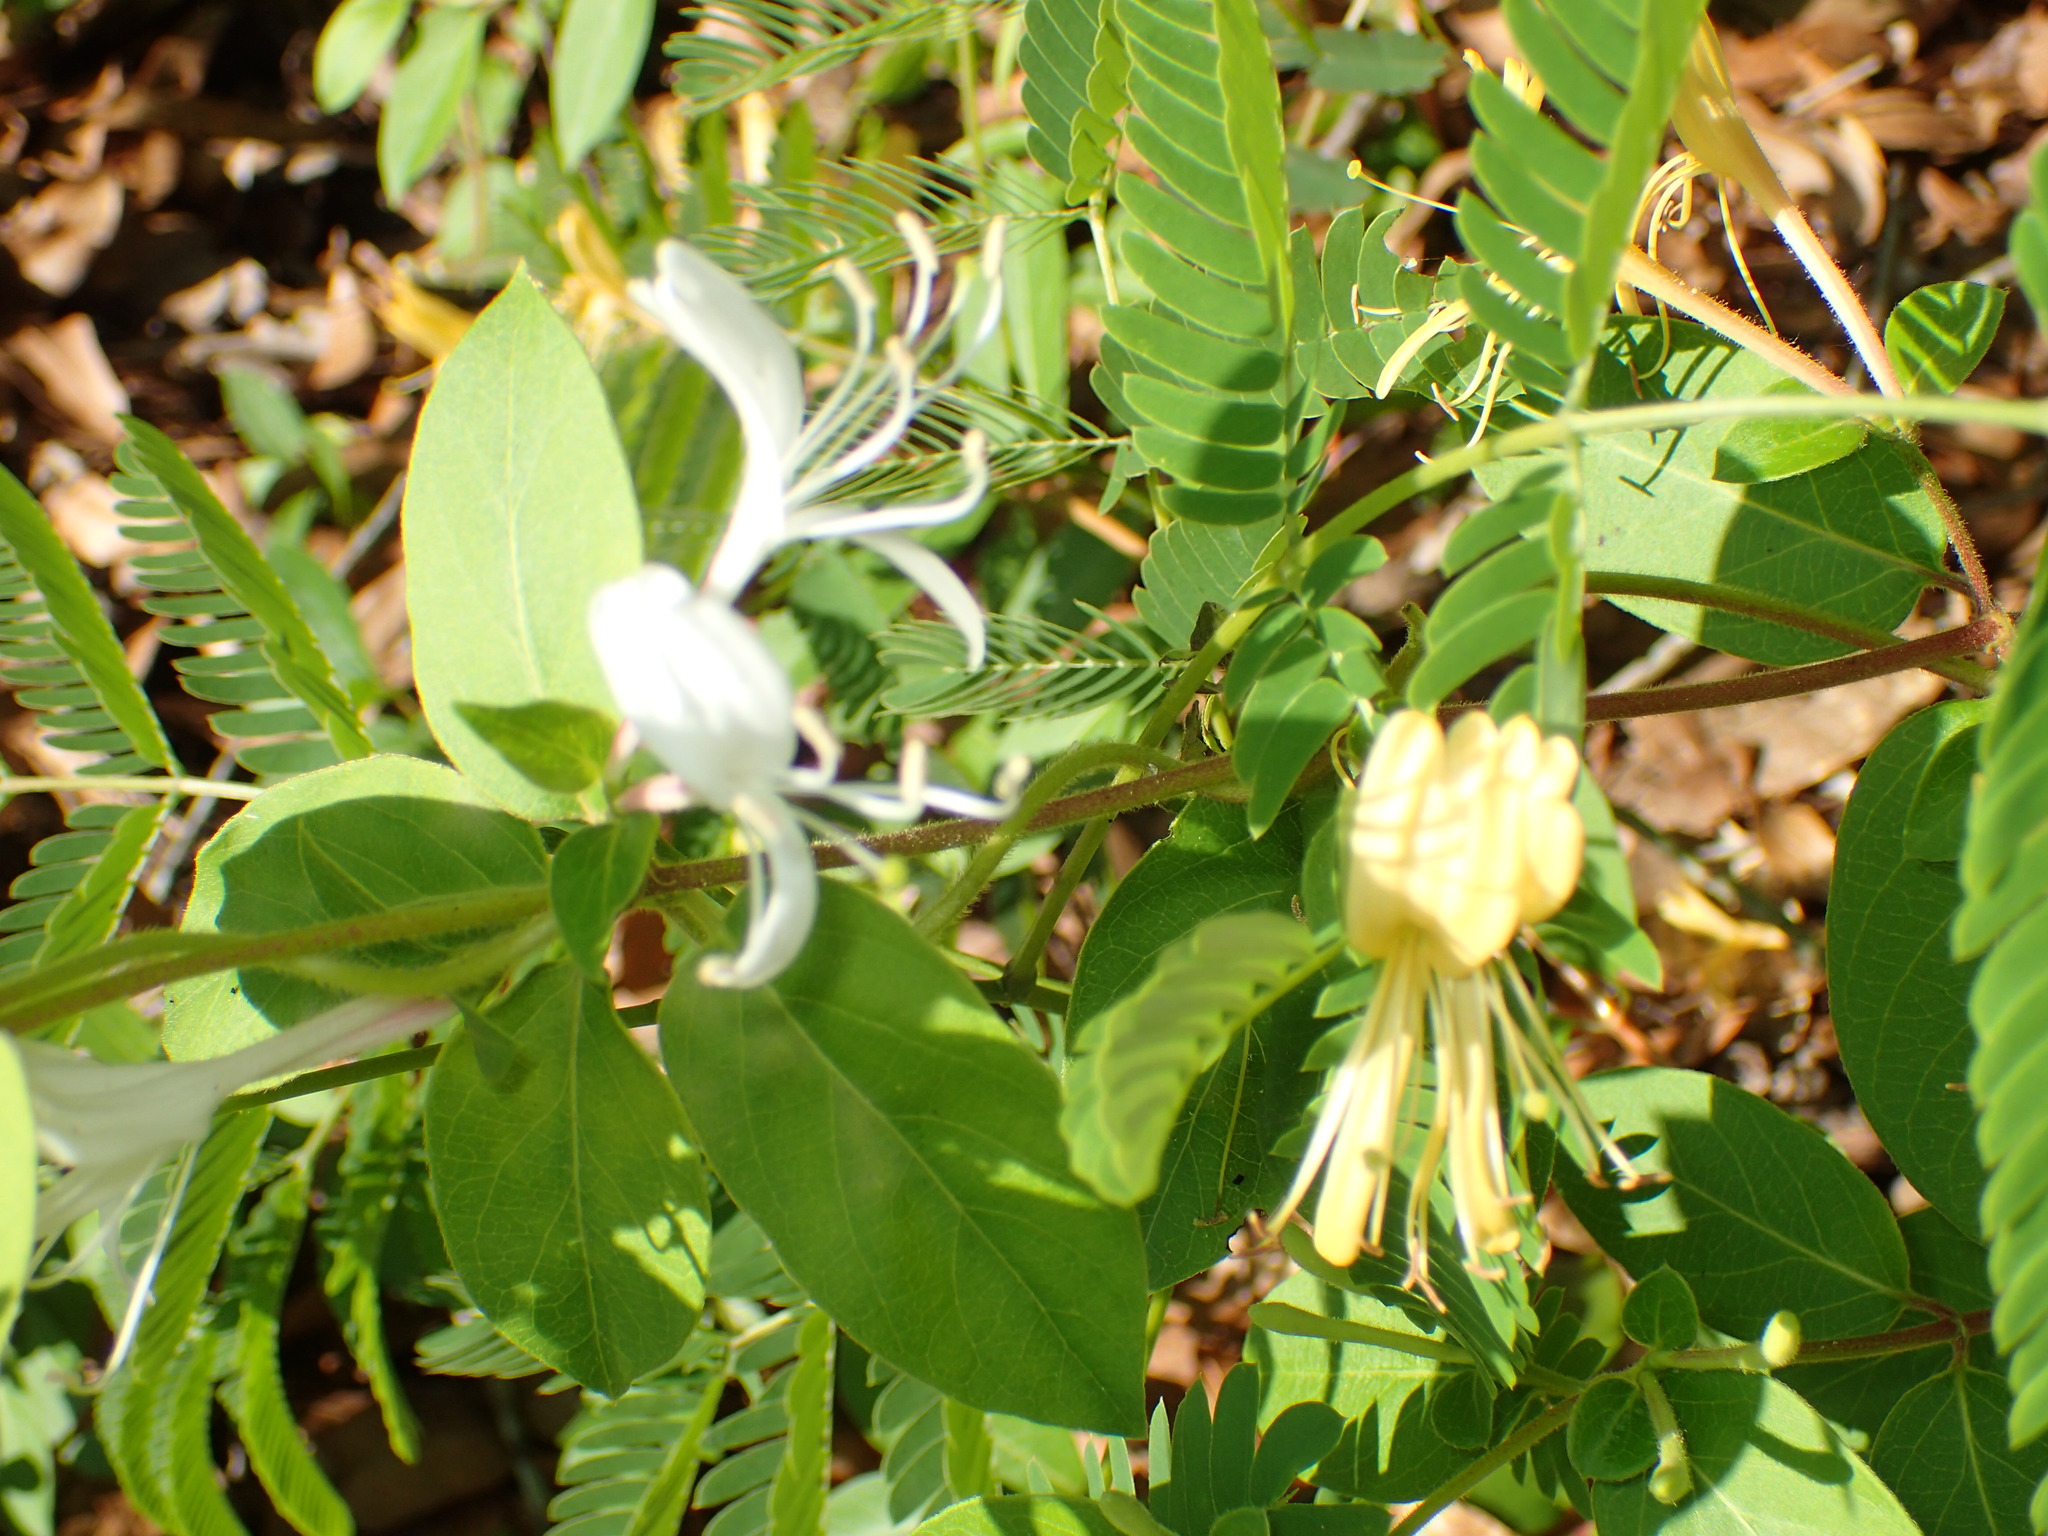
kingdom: Plantae
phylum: Tracheophyta
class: Magnoliopsida
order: Dipsacales
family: Caprifoliaceae
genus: Lonicera
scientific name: Lonicera japonica
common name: Japanese honeysuckle
